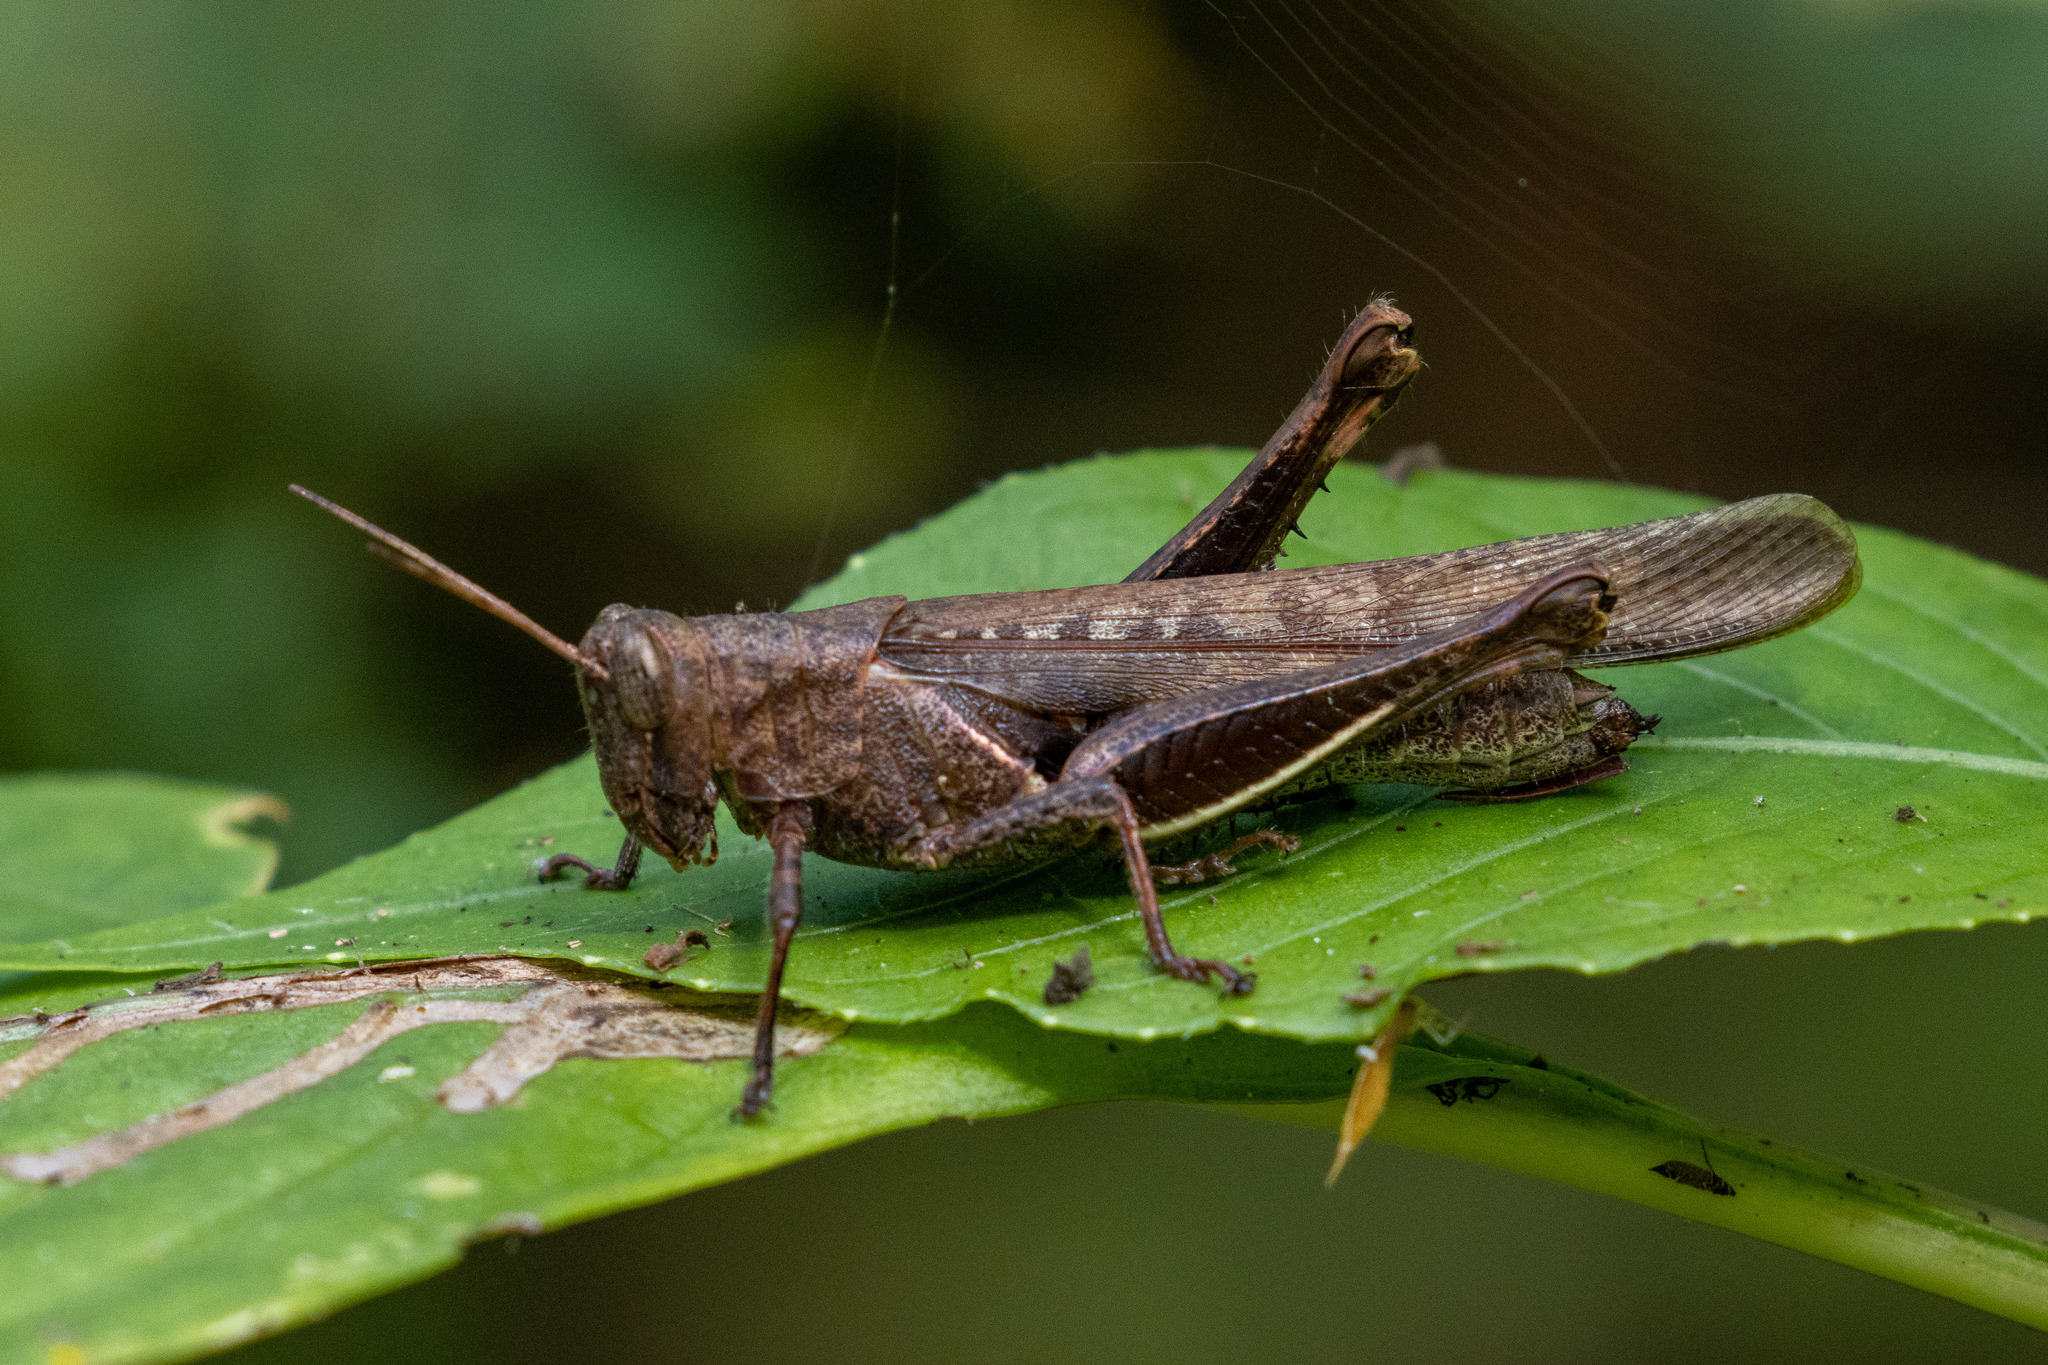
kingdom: Animalia
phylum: Arthropoda
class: Insecta
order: Orthoptera
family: Acrididae
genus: Abracris
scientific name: Abracris flavolineata
